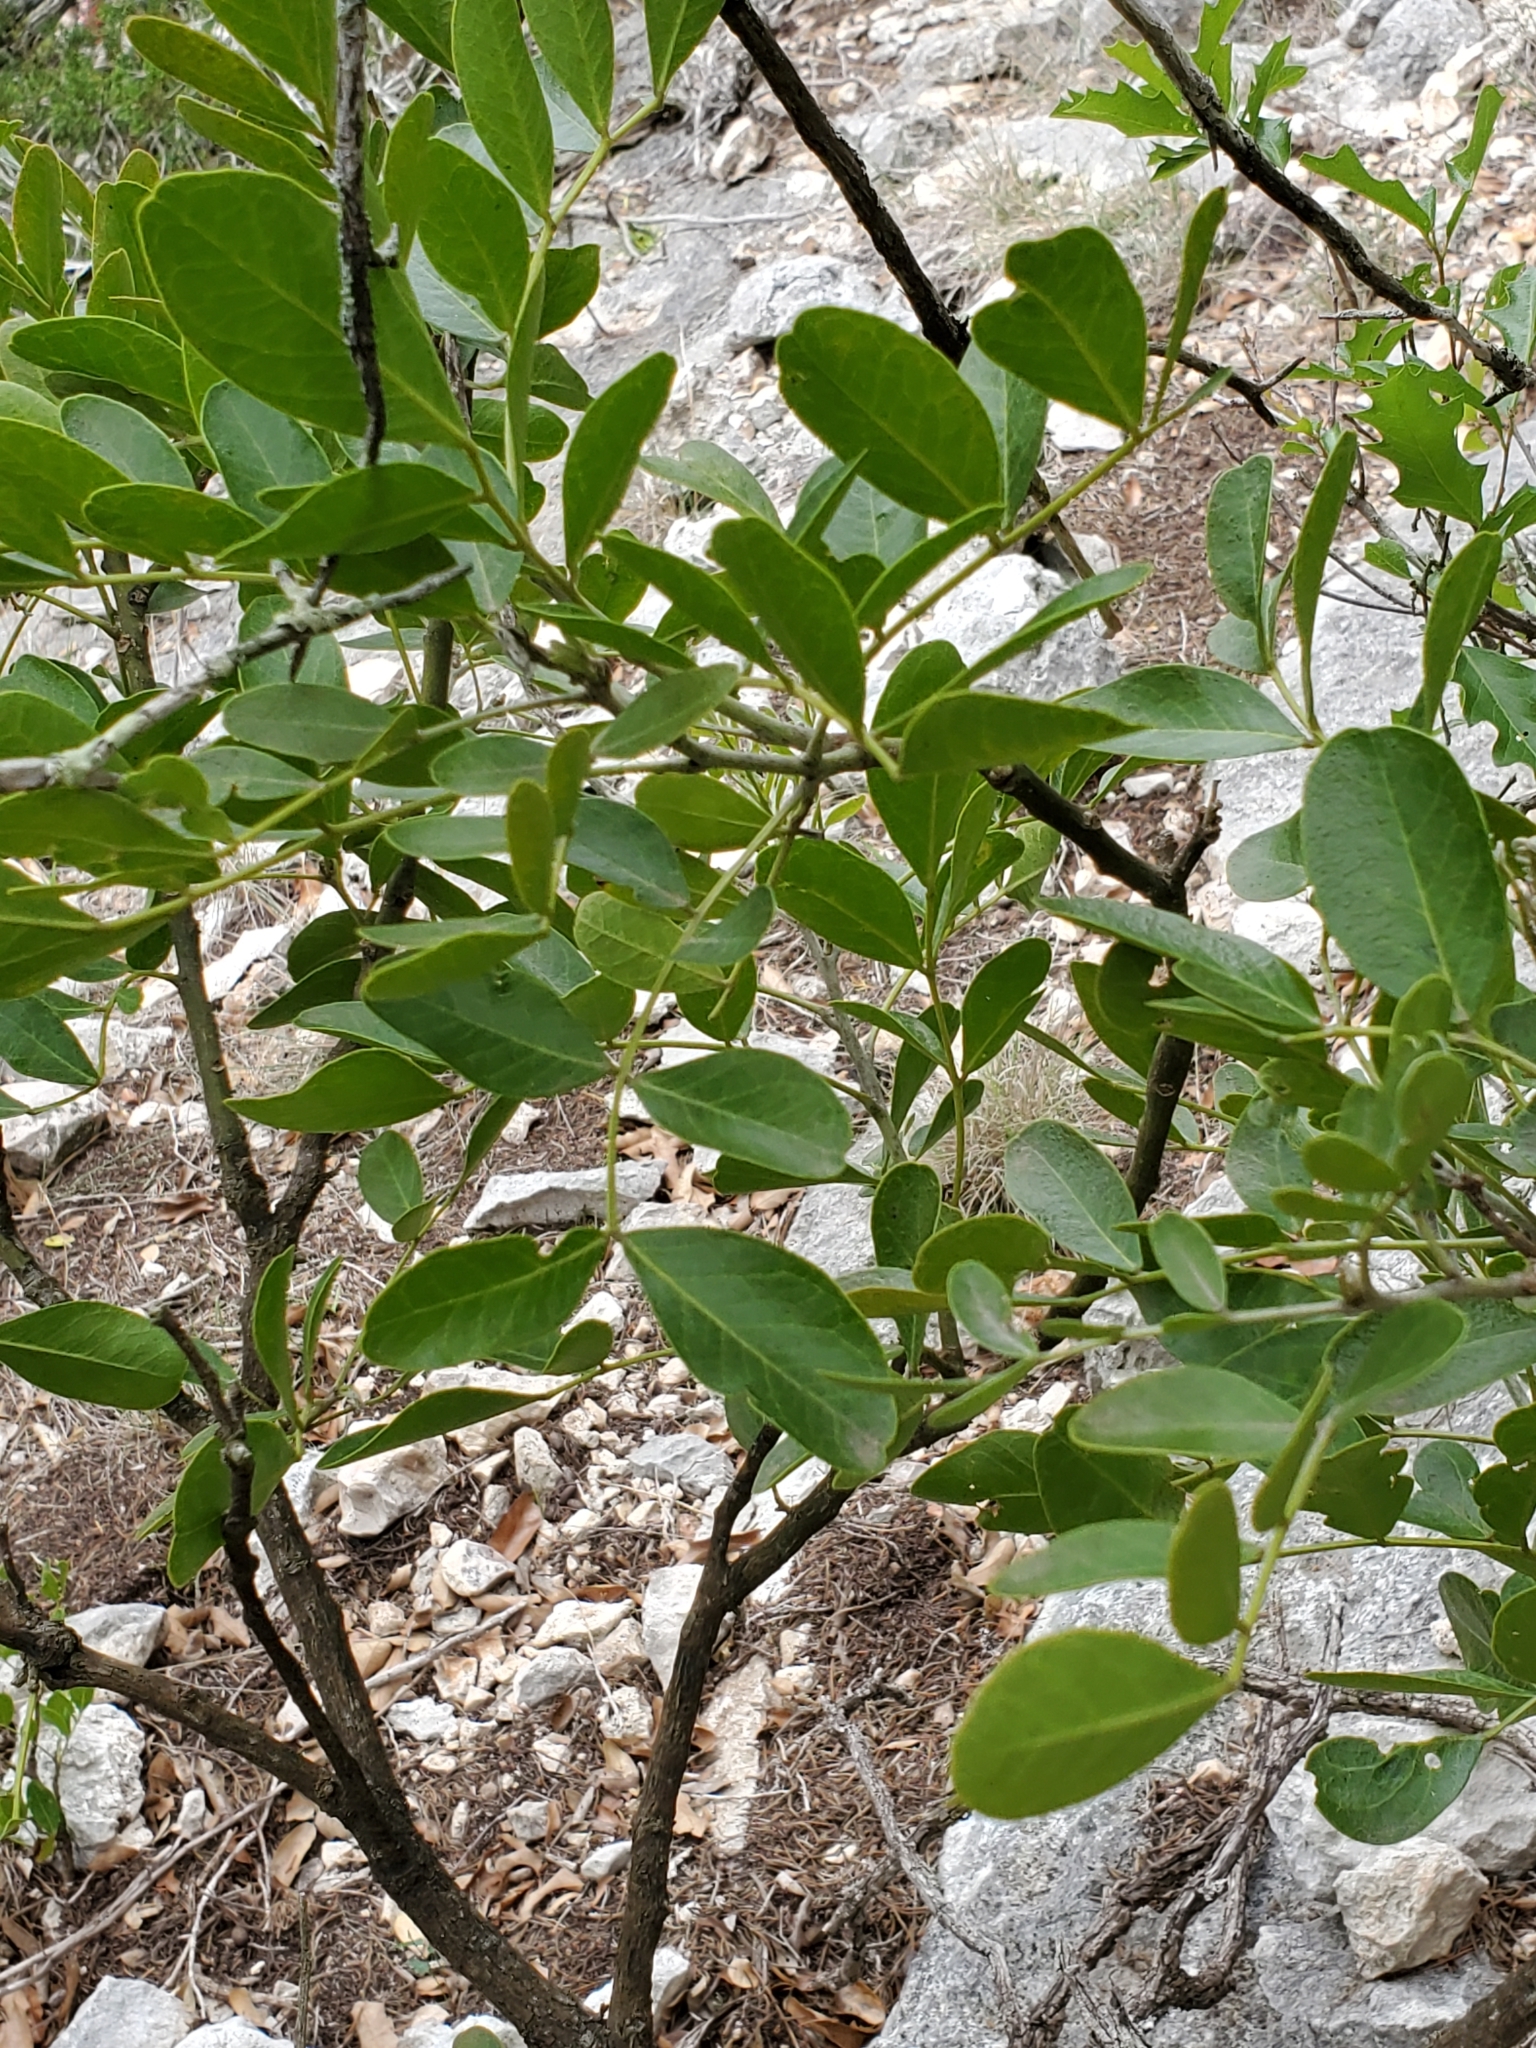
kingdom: Plantae
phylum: Tracheophyta
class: Magnoliopsida
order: Fabales
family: Fabaceae
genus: Dermatophyllum
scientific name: Dermatophyllum secundiflorum
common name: Texas-mountain-laurel
